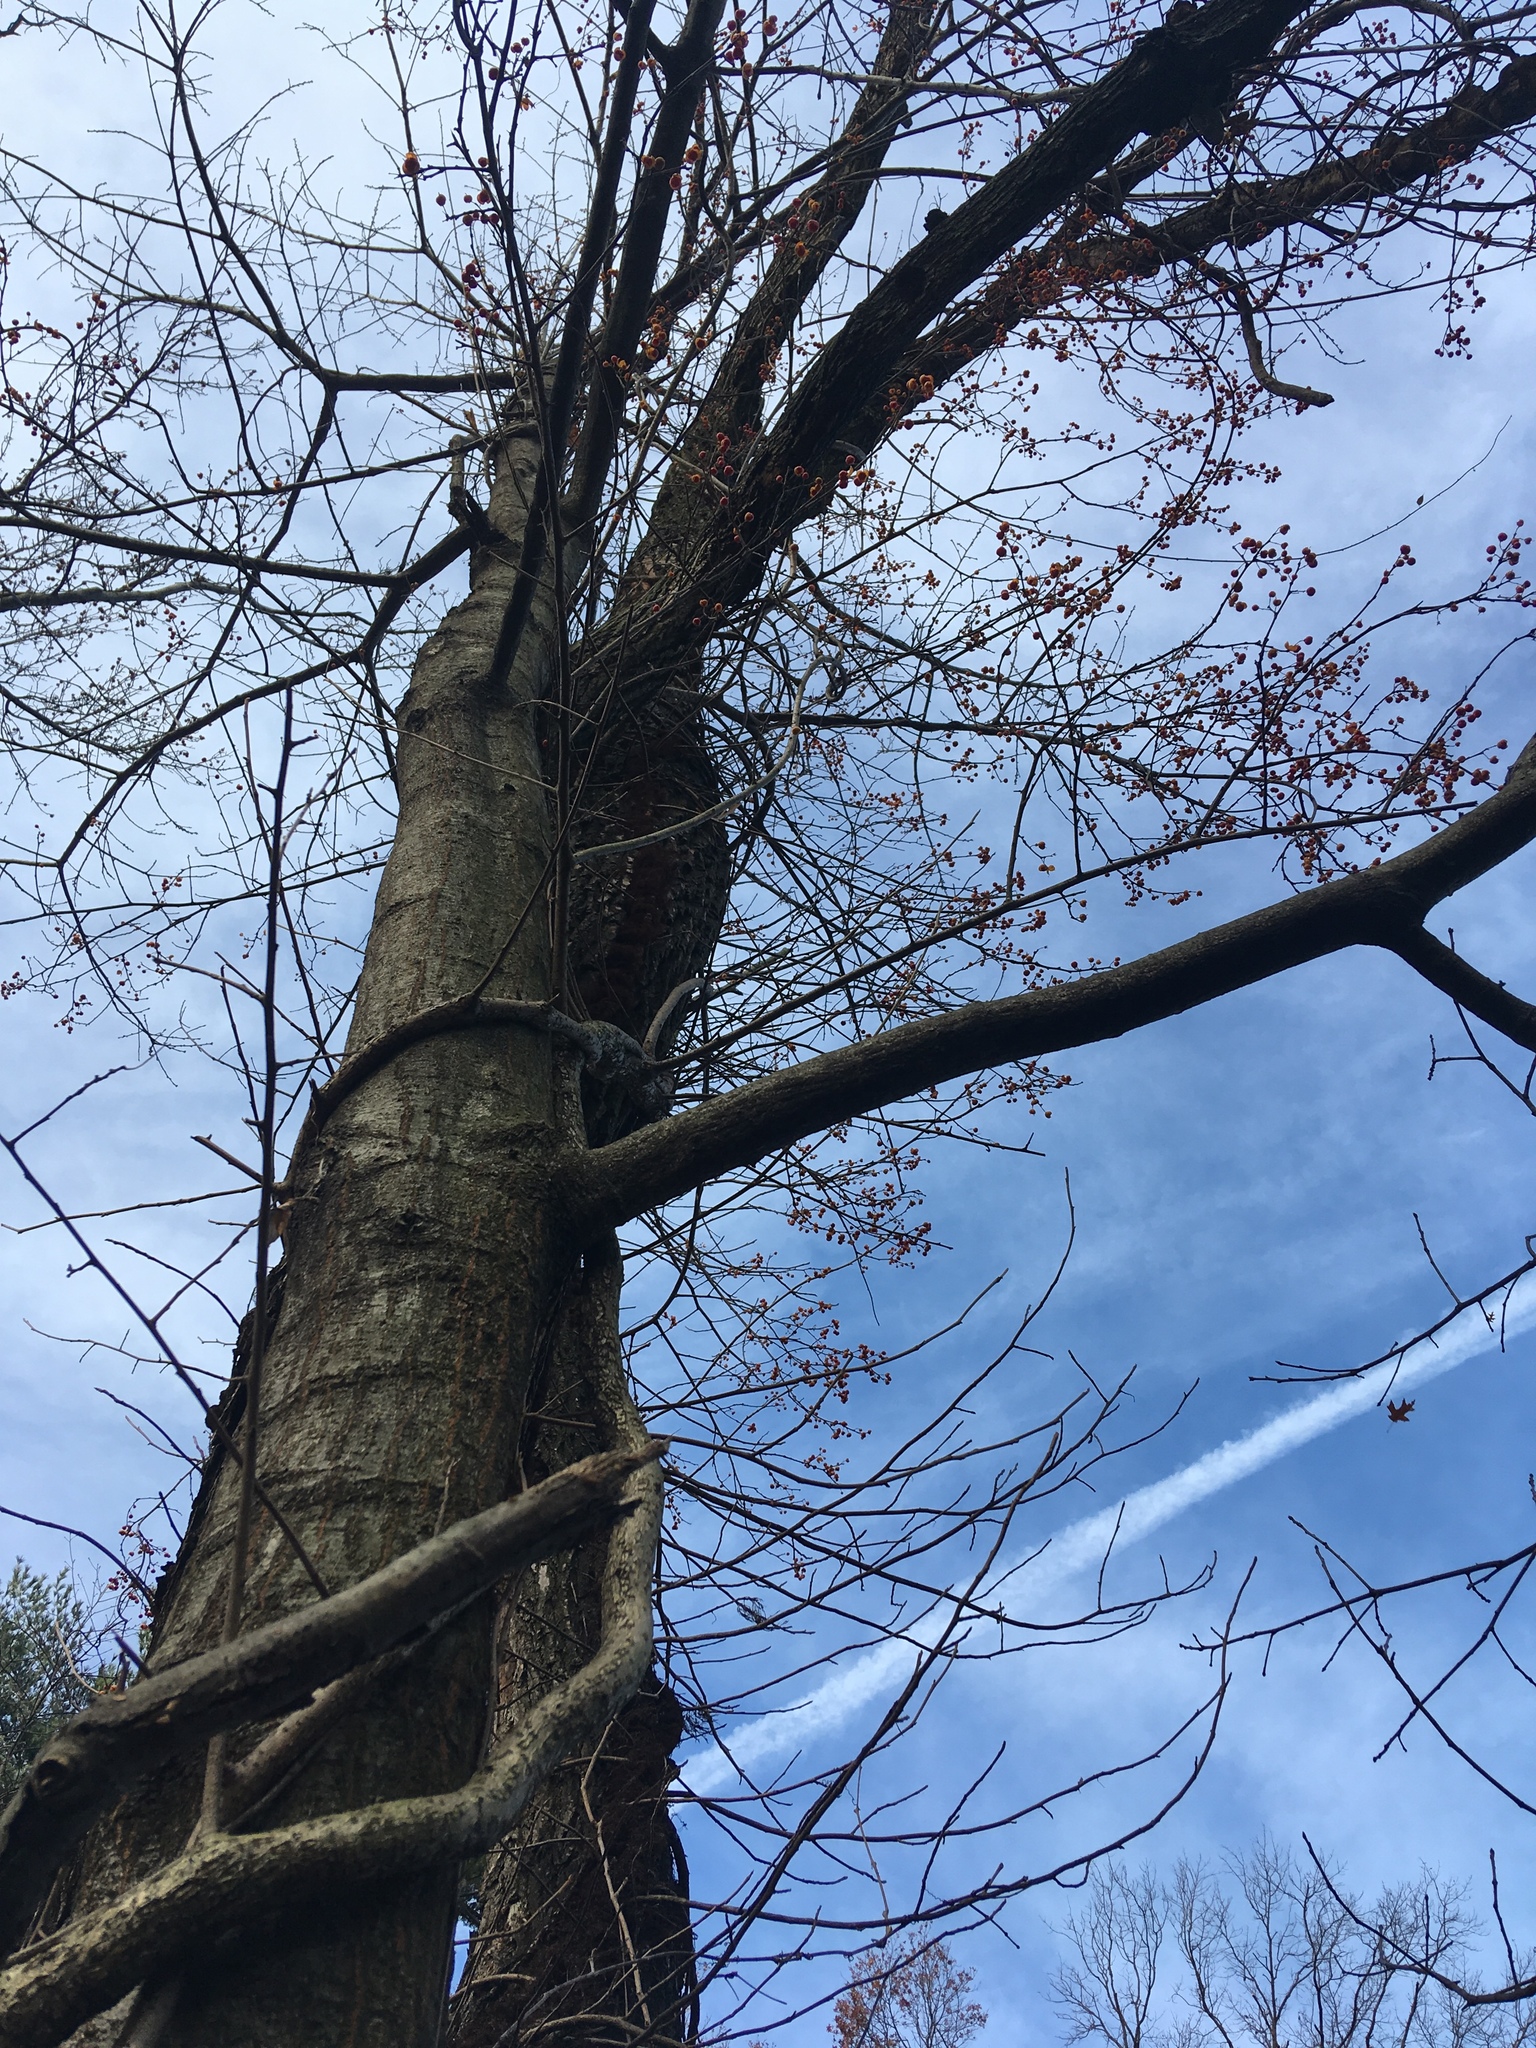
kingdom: Plantae
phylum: Tracheophyta
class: Magnoliopsida
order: Celastrales
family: Celastraceae
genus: Celastrus
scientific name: Celastrus orbiculatus
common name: Oriental bittersweet
